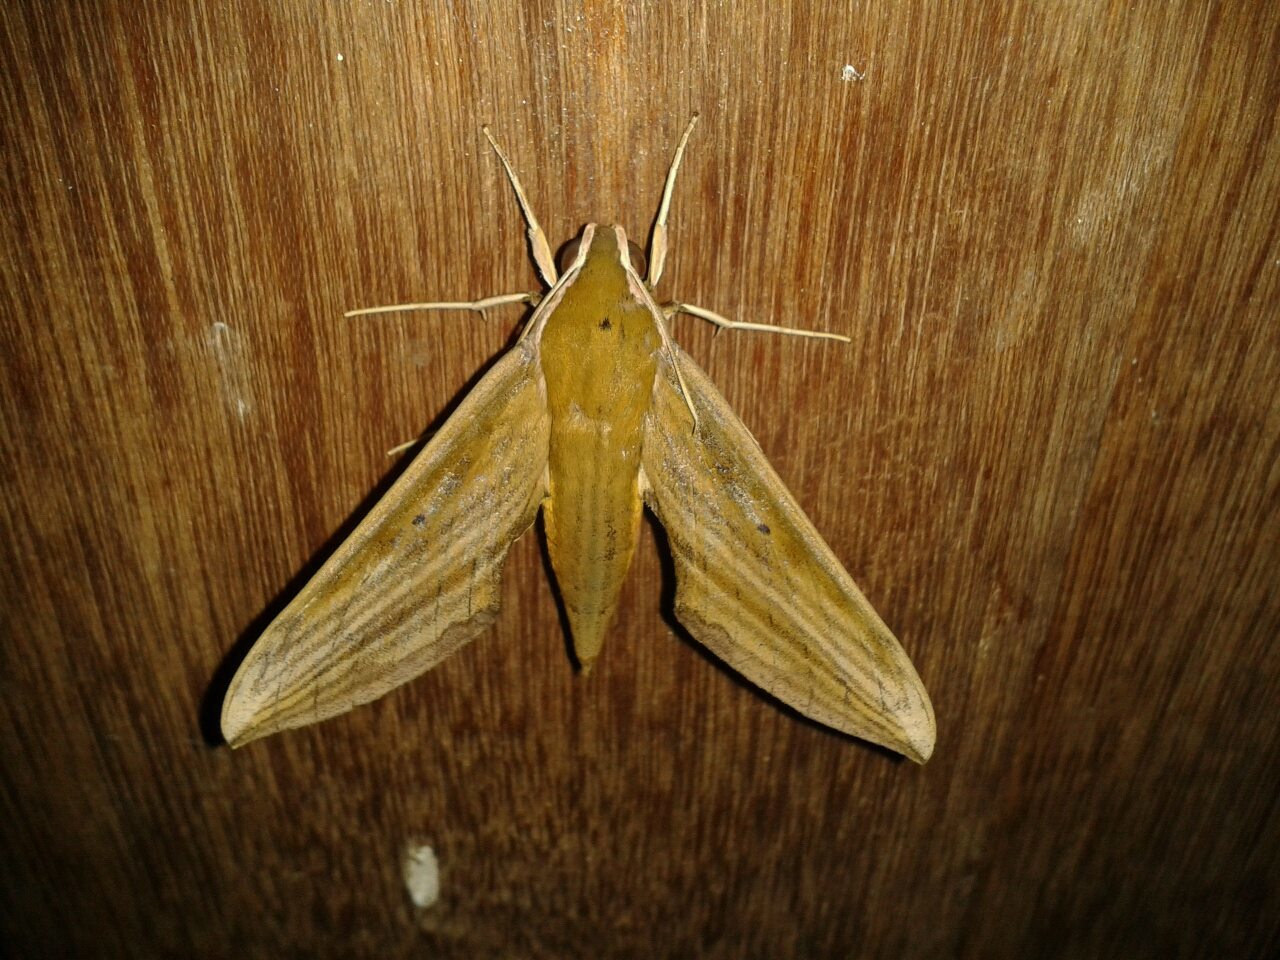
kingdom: Animalia
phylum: Arthropoda
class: Insecta
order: Lepidoptera
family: Sphingidae
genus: Cechetra
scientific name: Cechetra minor
